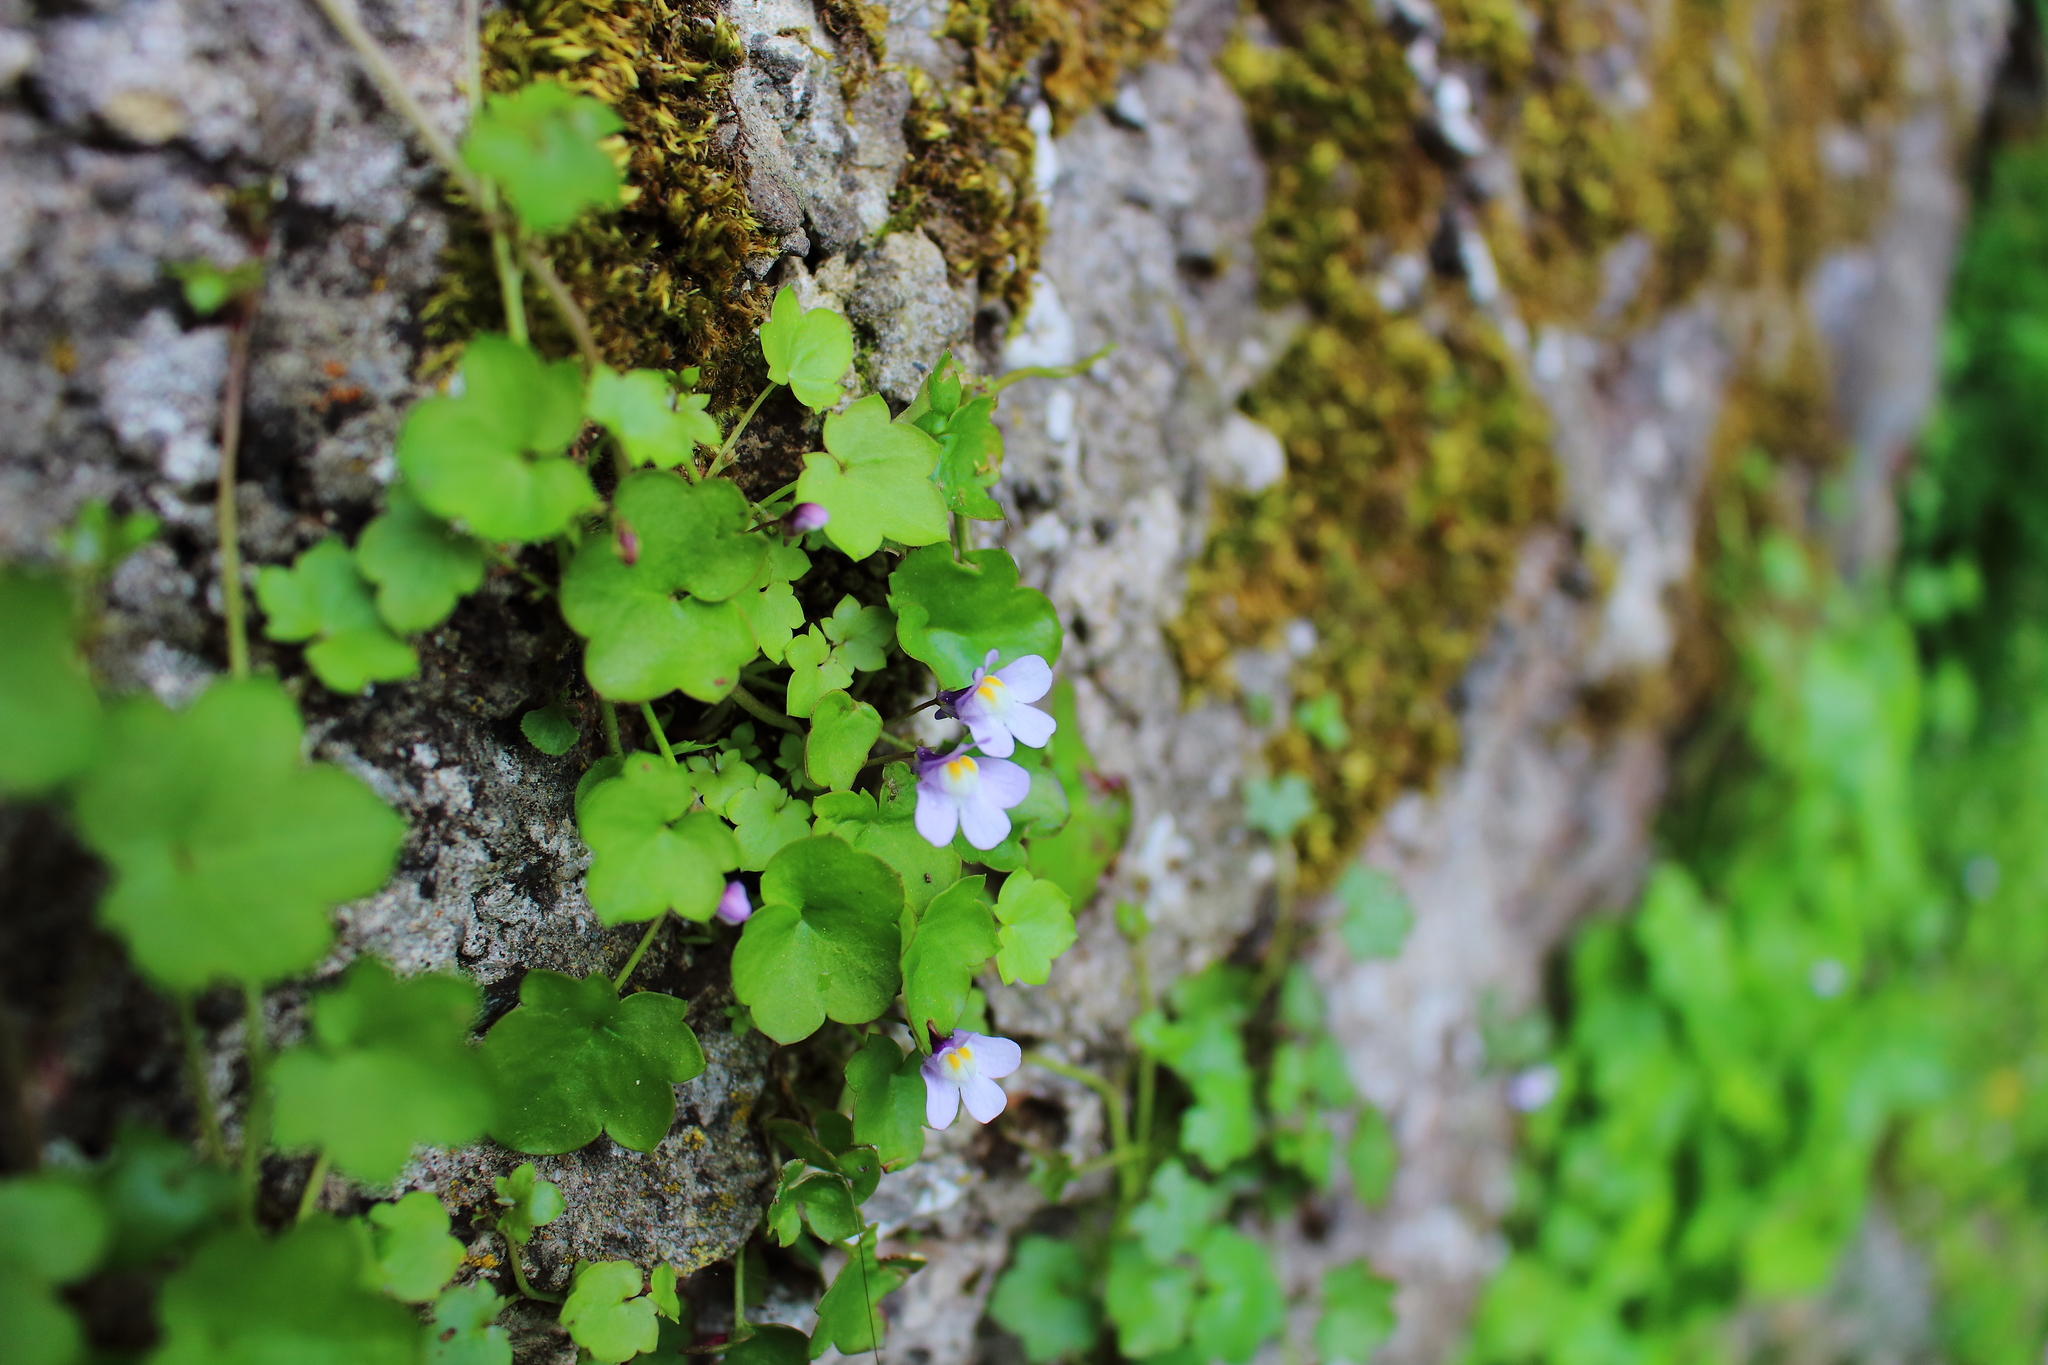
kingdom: Plantae
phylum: Tracheophyta
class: Magnoliopsida
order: Lamiales
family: Plantaginaceae
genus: Cymbalaria
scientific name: Cymbalaria muralis
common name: Ivy-leaved toadflax
